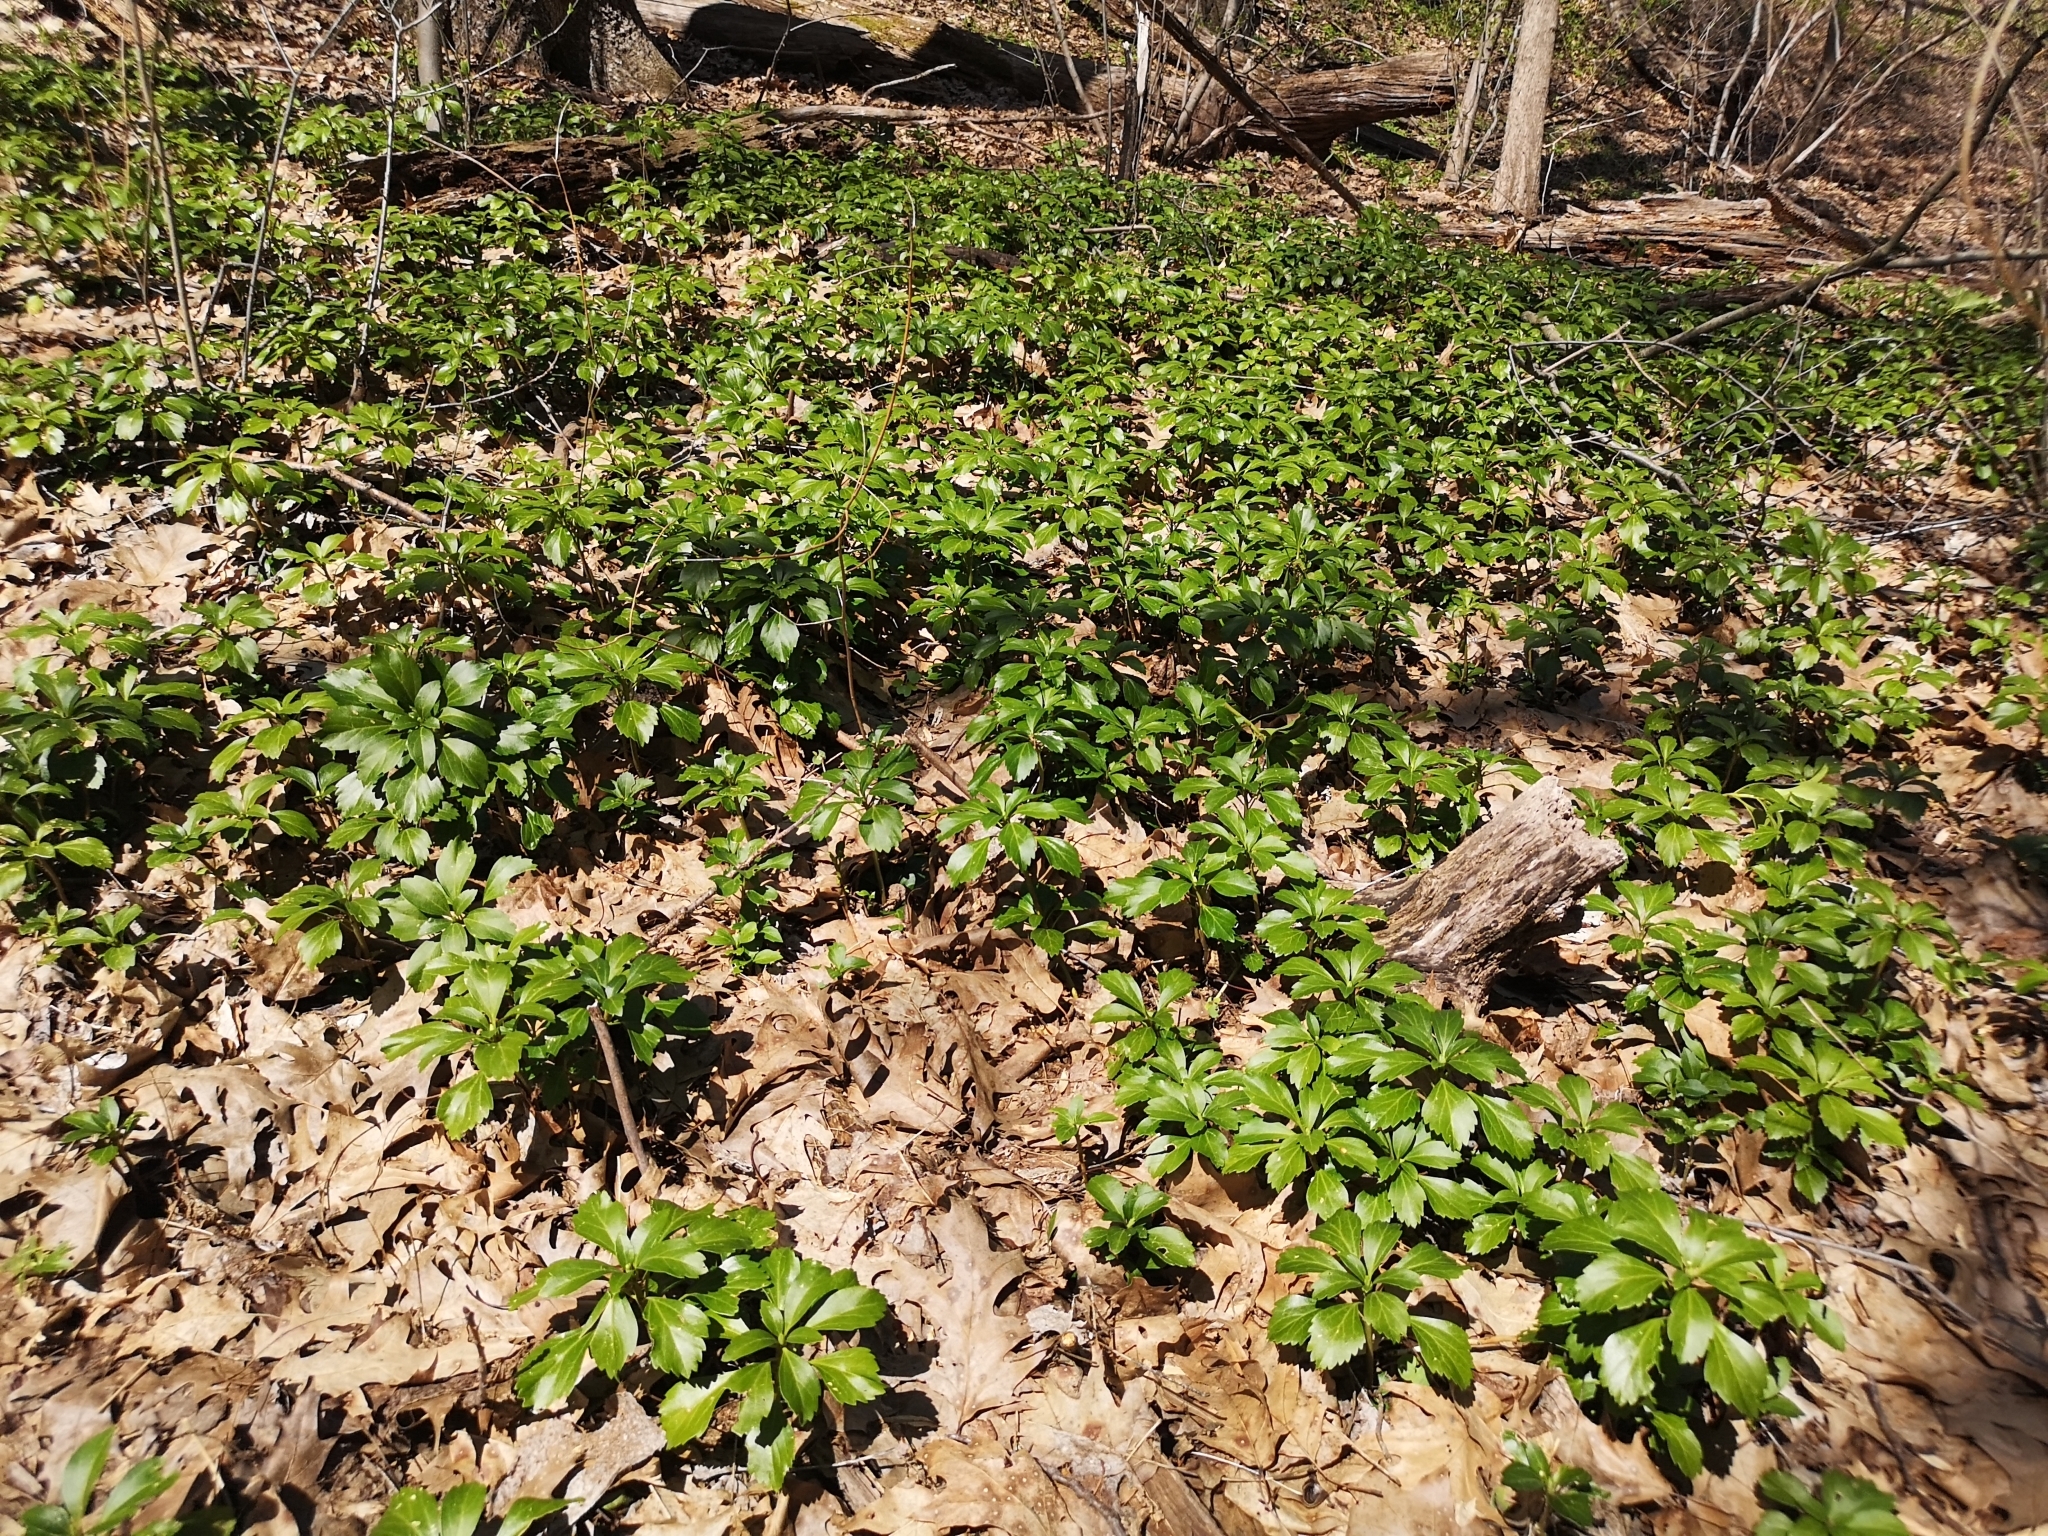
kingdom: Plantae
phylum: Tracheophyta
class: Magnoliopsida
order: Buxales
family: Buxaceae
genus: Pachysandra
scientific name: Pachysandra terminalis
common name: Japanese pachysandra
